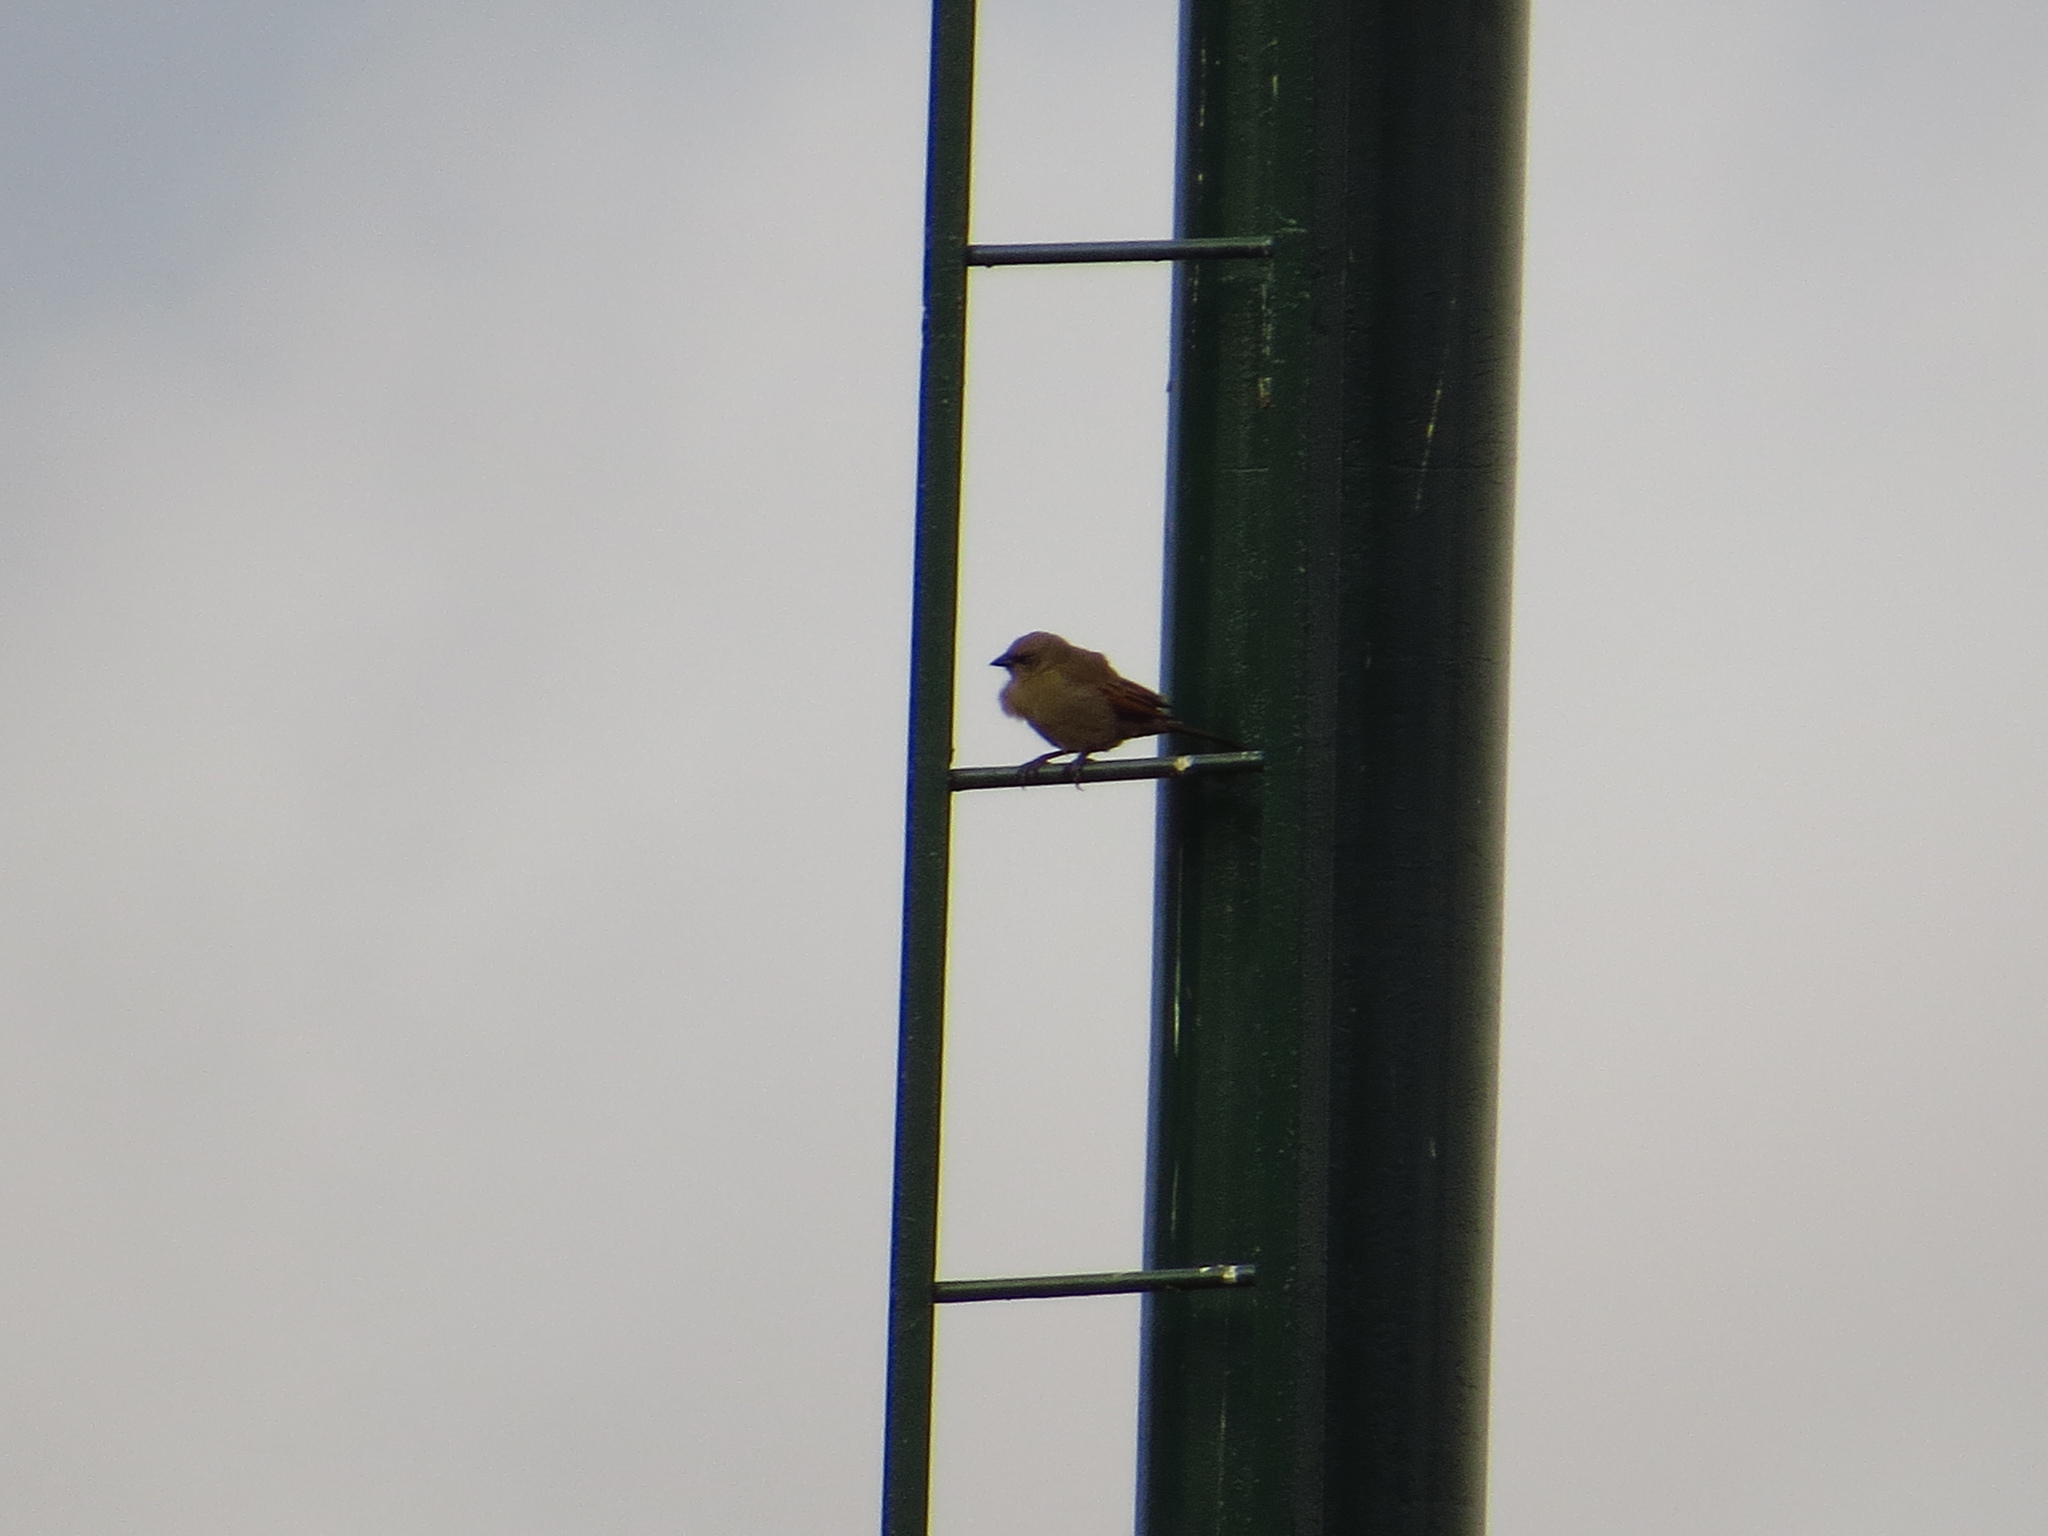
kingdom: Animalia
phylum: Chordata
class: Aves
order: Passeriformes
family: Icteridae
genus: Agelaioides
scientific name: Agelaioides badius
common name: Baywing
